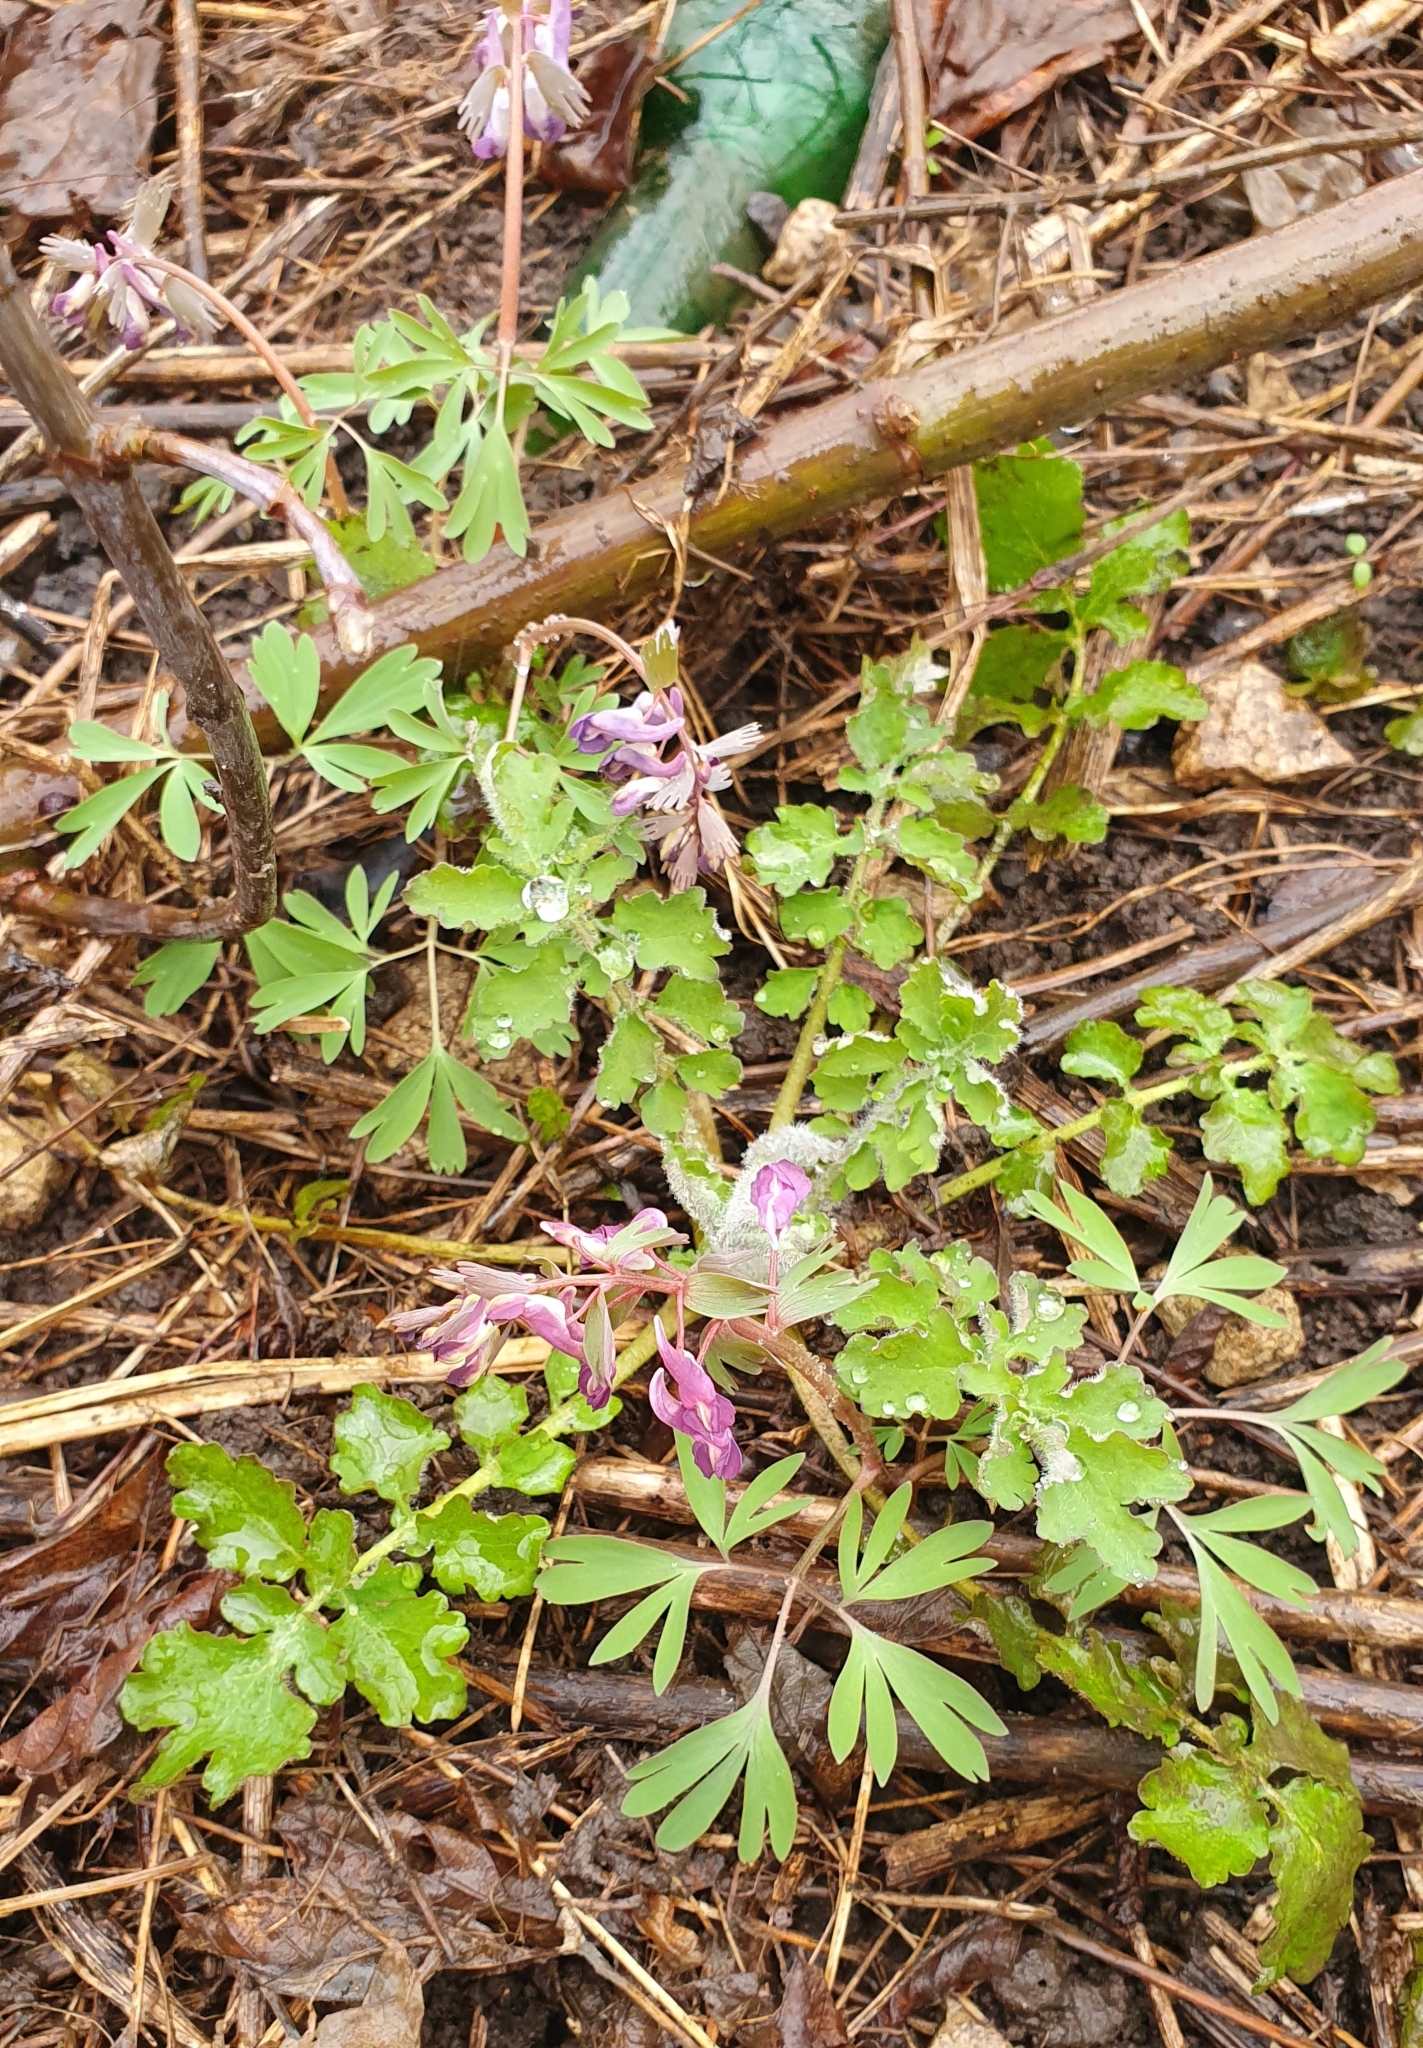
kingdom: Plantae
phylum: Tracheophyta
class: Magnoliopsida
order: Ranunculales
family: Papaveraceae
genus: Corydalis
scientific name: Corydalis solida
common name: Bird-in-a-bush
